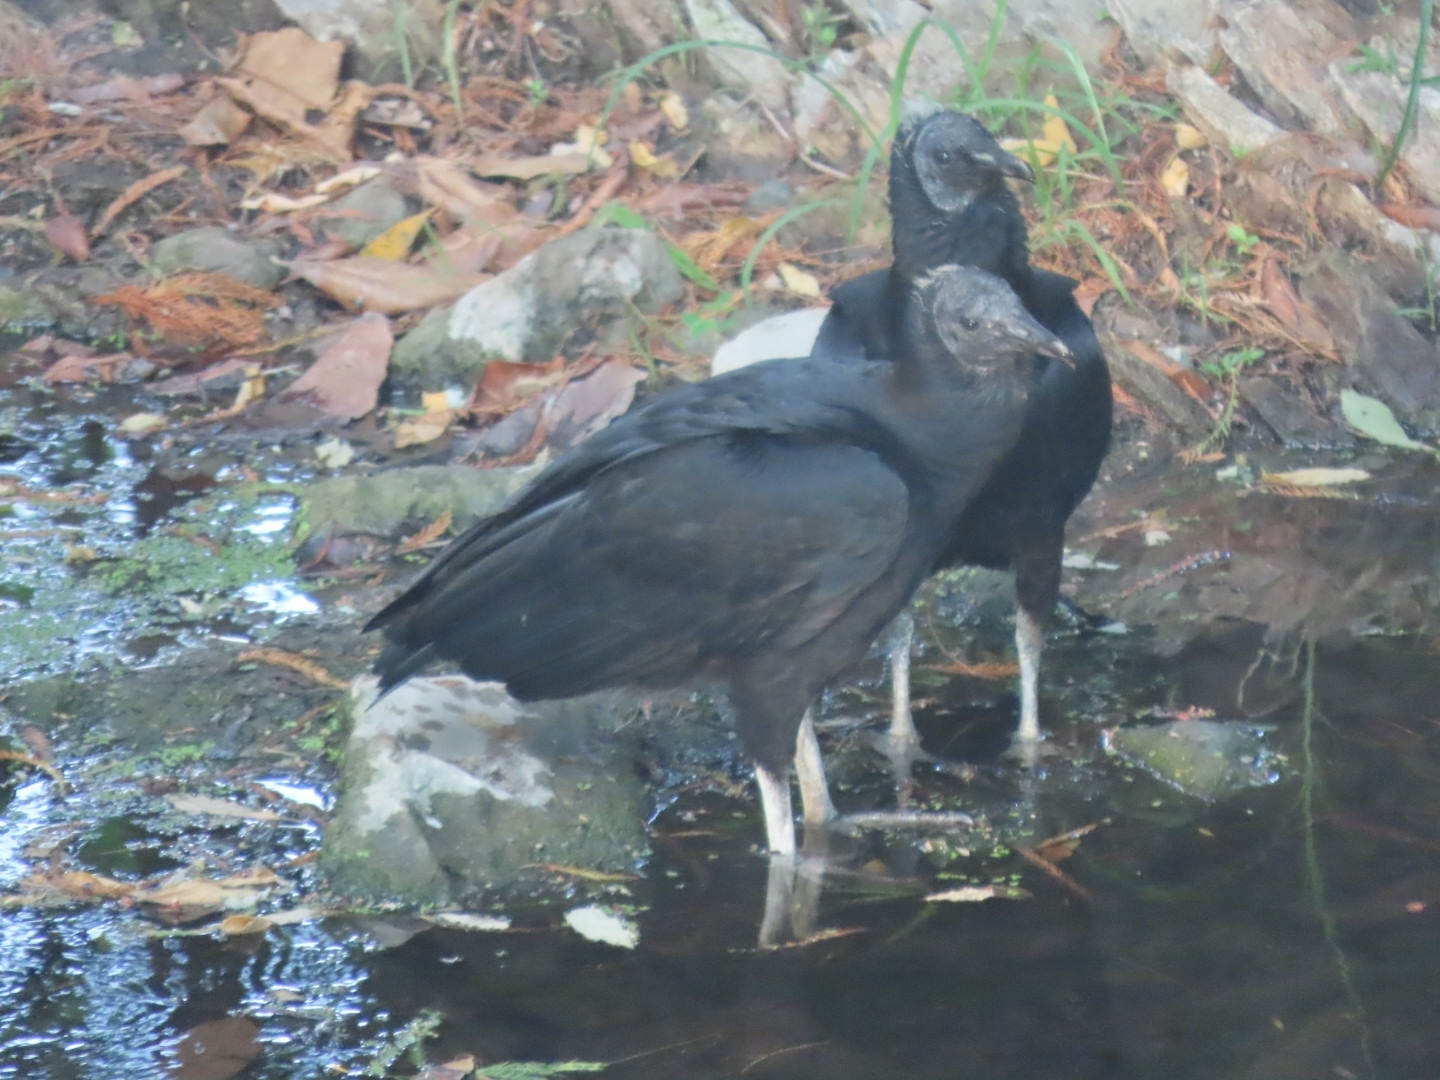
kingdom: Animalia
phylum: Chordata
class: Aves
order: Accipitriformes
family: Cathartidae
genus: Coragyps
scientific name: Coragyps atratus
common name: Black vulture
